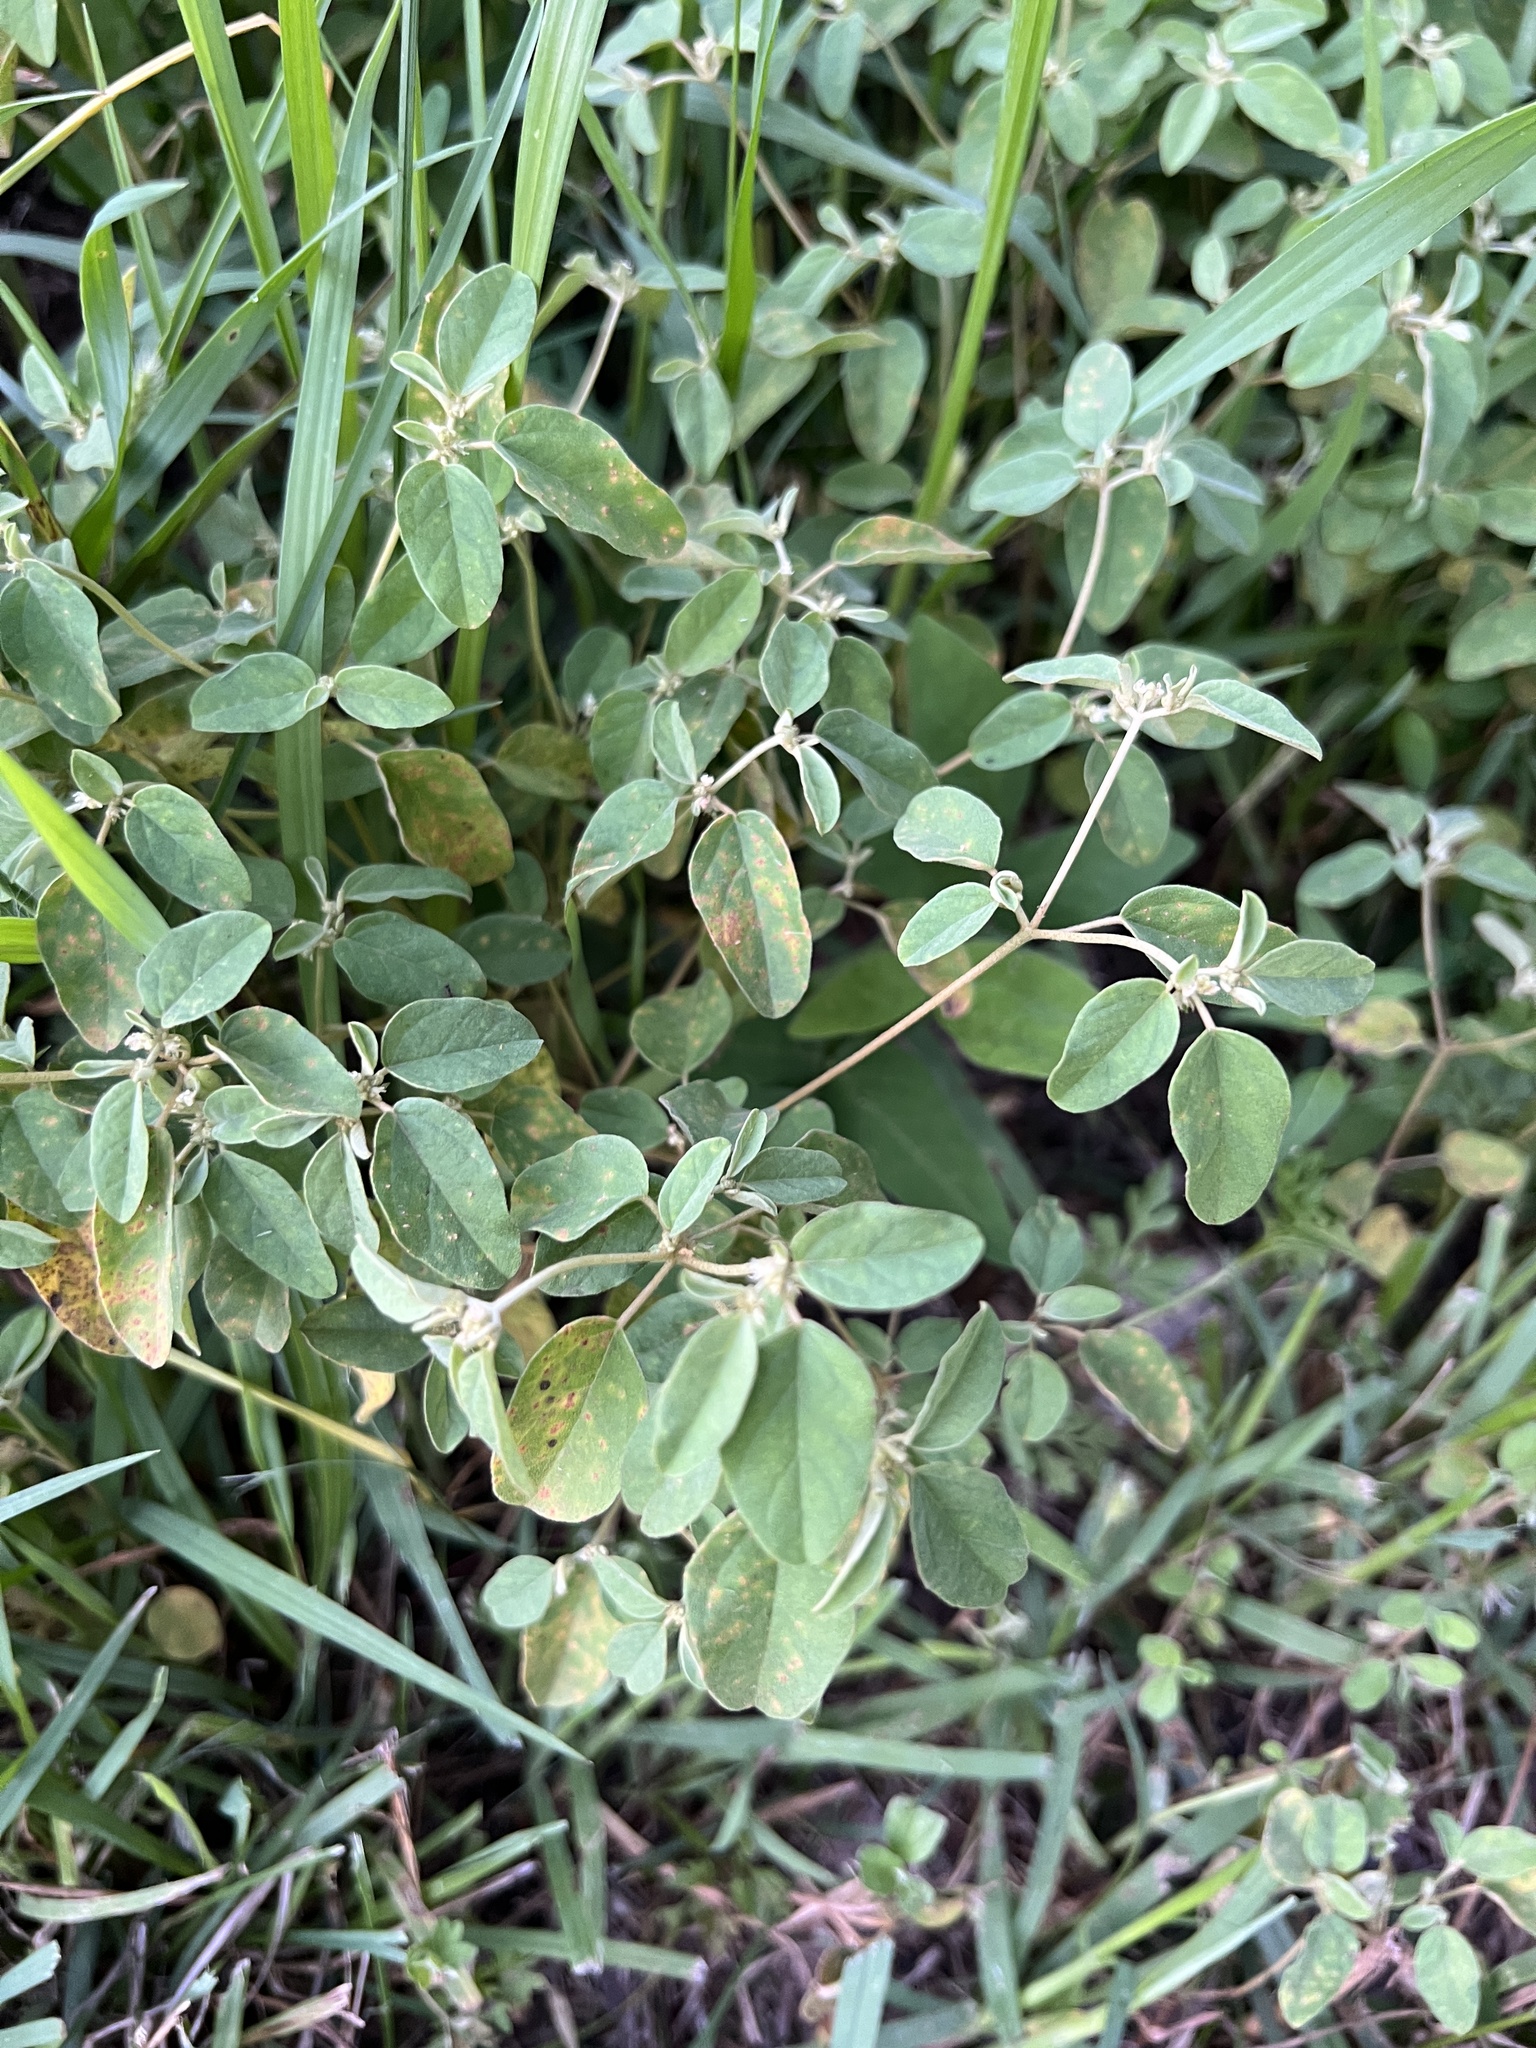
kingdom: Plantae
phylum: Tracheophyta
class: Magnoliopsida
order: Malpighiales
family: Euphorbiaceae
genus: Croton
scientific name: Croton monanthogynus
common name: One-seed croton
